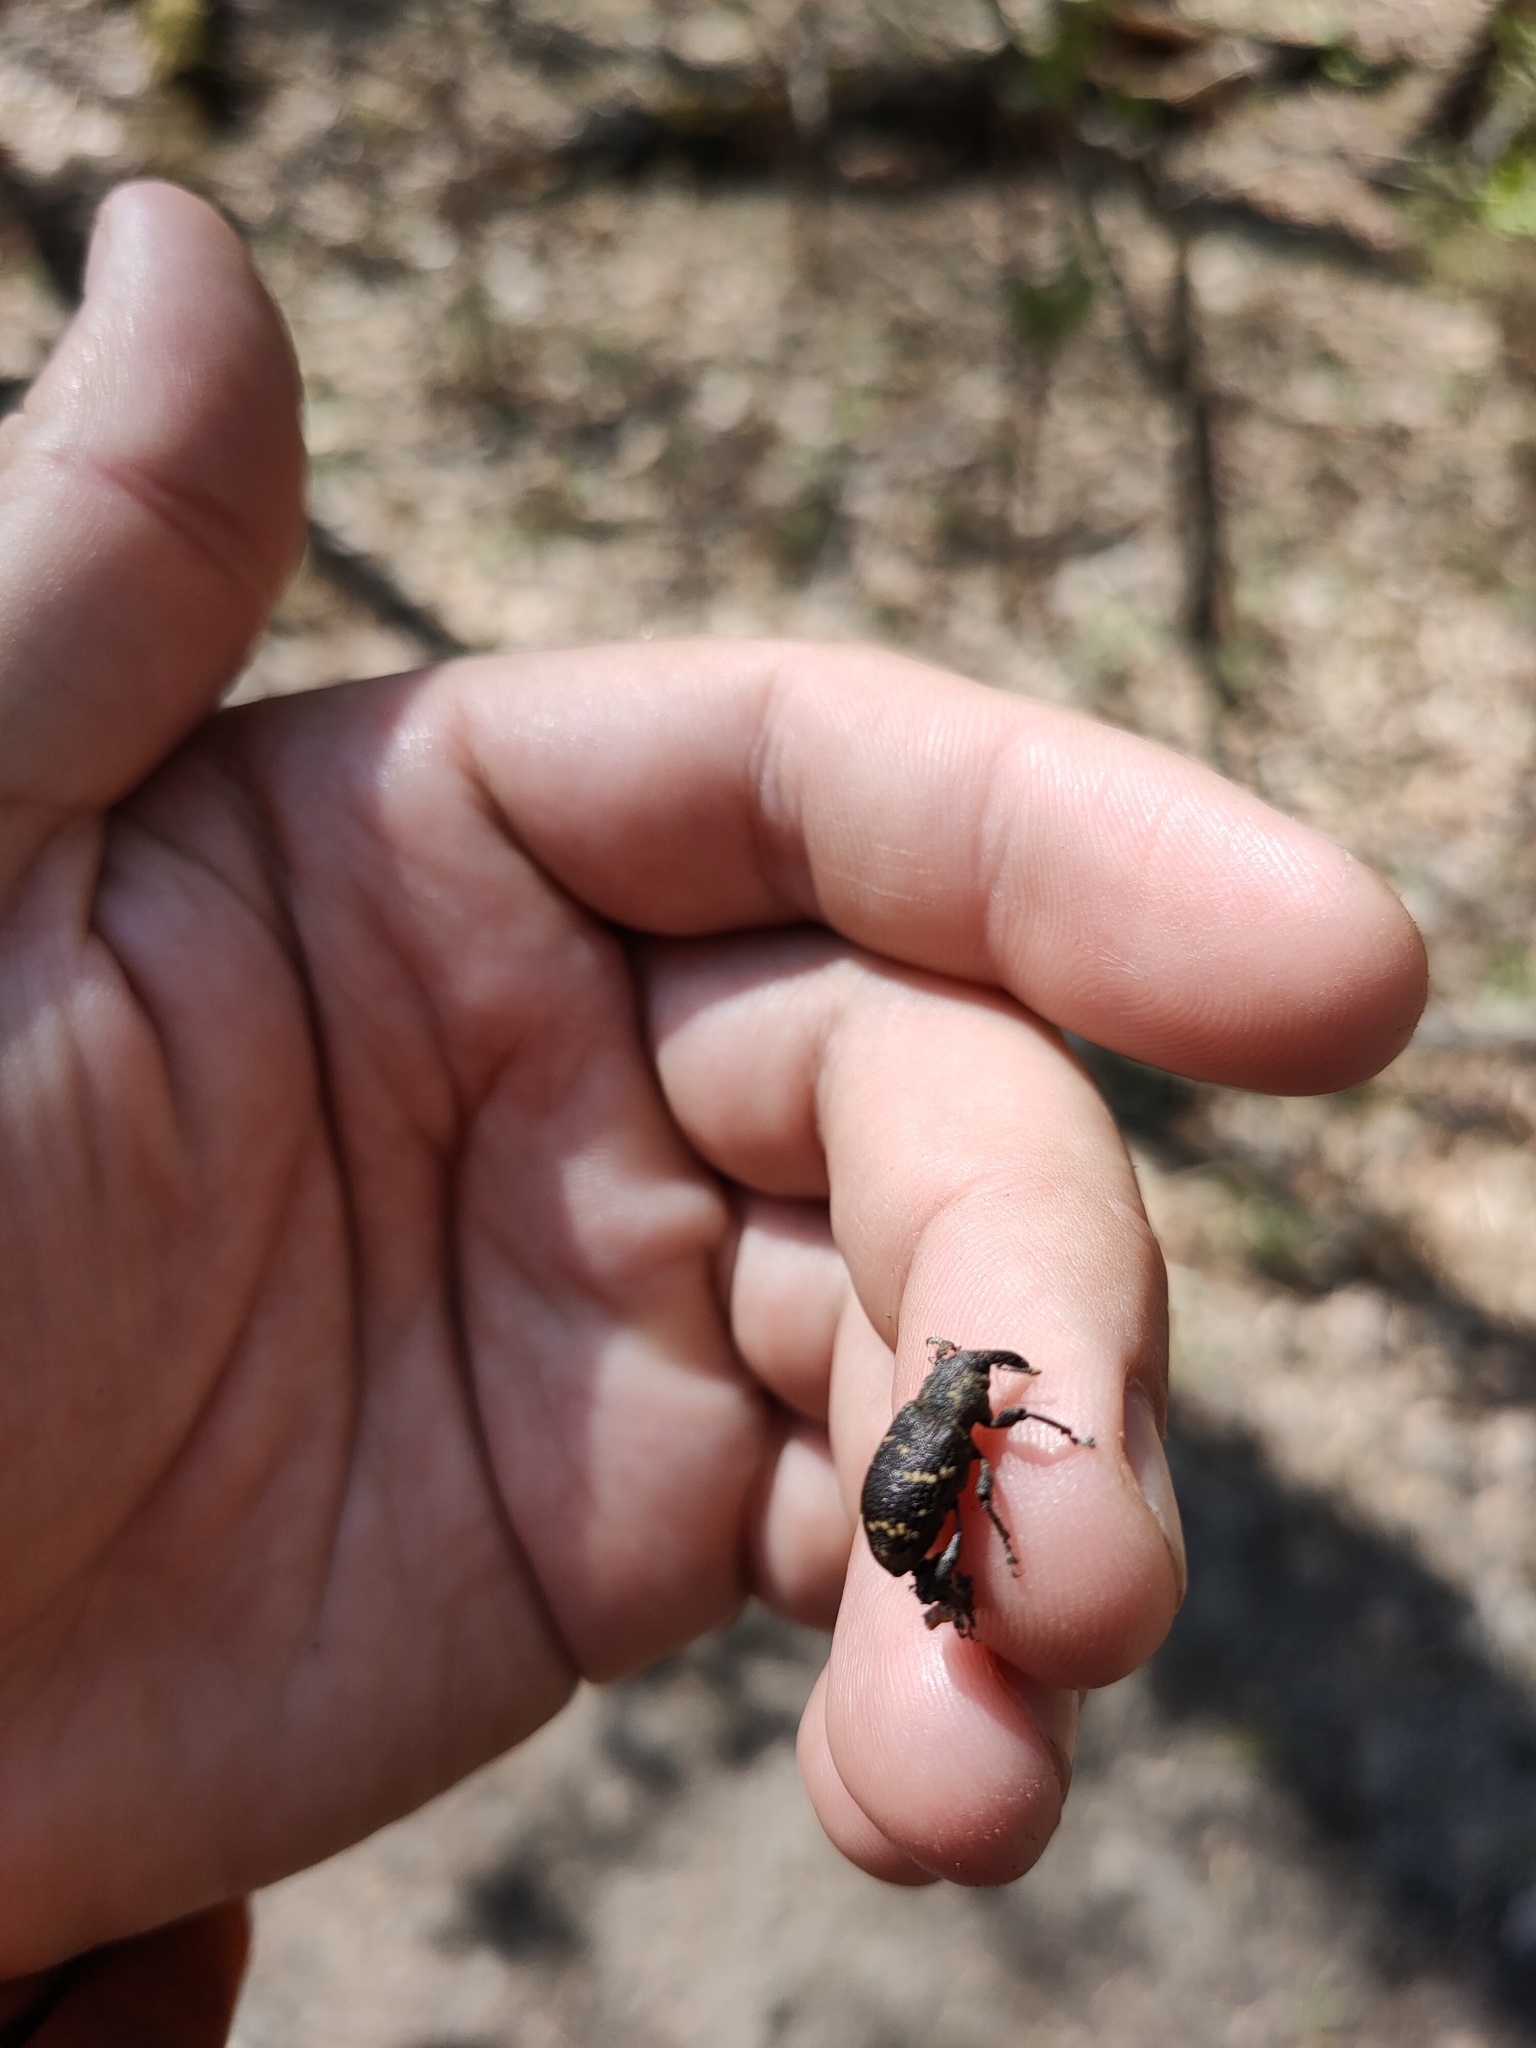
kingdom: Animalia
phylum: Arthropoda
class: Insecta
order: Coleoptera
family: Curculionidae
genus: Hylobius
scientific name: Hylobius abietis
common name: Large pine weevil
